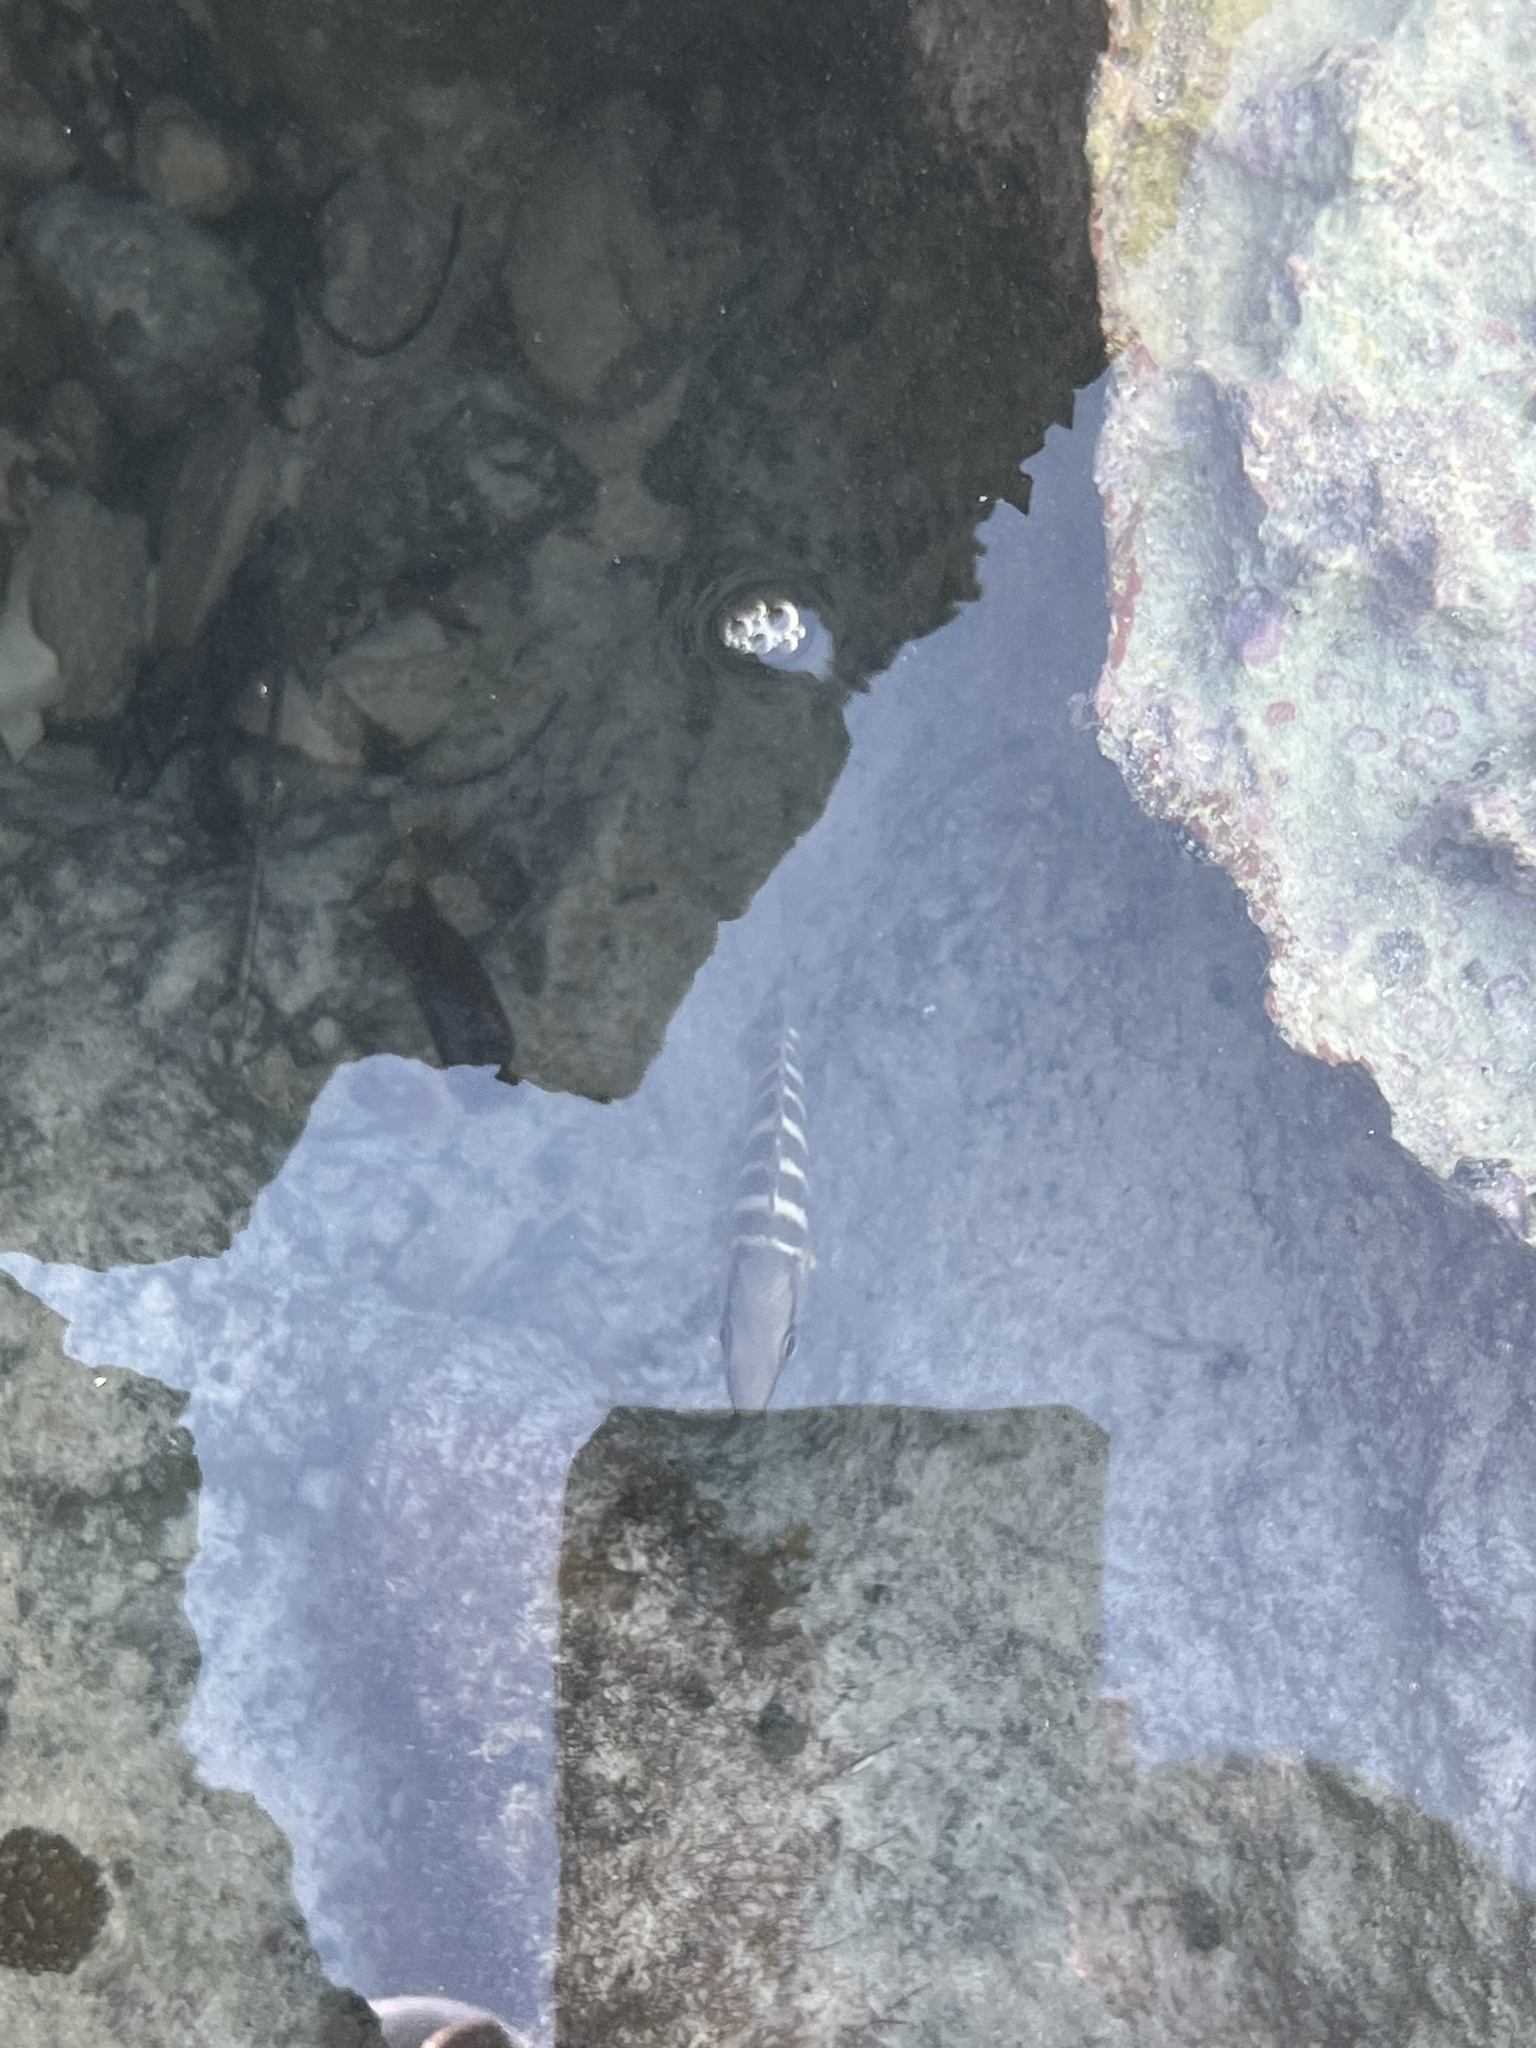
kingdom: Animalia
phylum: Chordata
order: Perciformes
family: Lutjanidae
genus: Lutjanus
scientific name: Lutjanus apodus
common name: Schoolmaster
